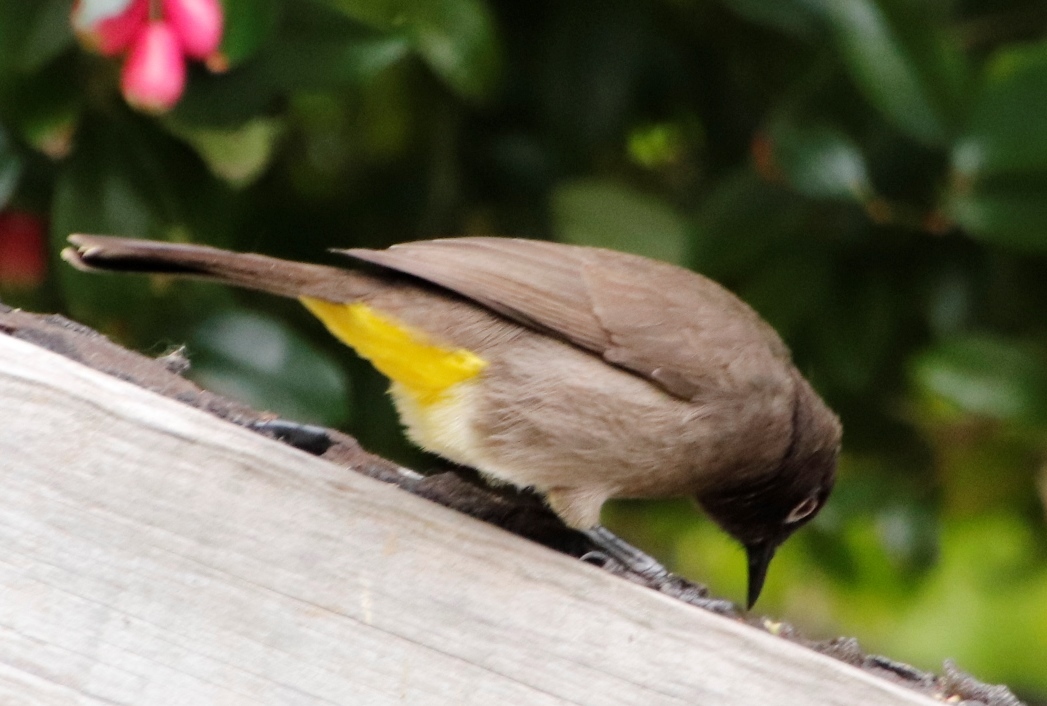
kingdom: Animalia
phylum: Chordata
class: Aves
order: Passeriformes
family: Pycnonotidae
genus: Pycnonotus
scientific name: Pycnonotus capensis
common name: Cape bulbul
